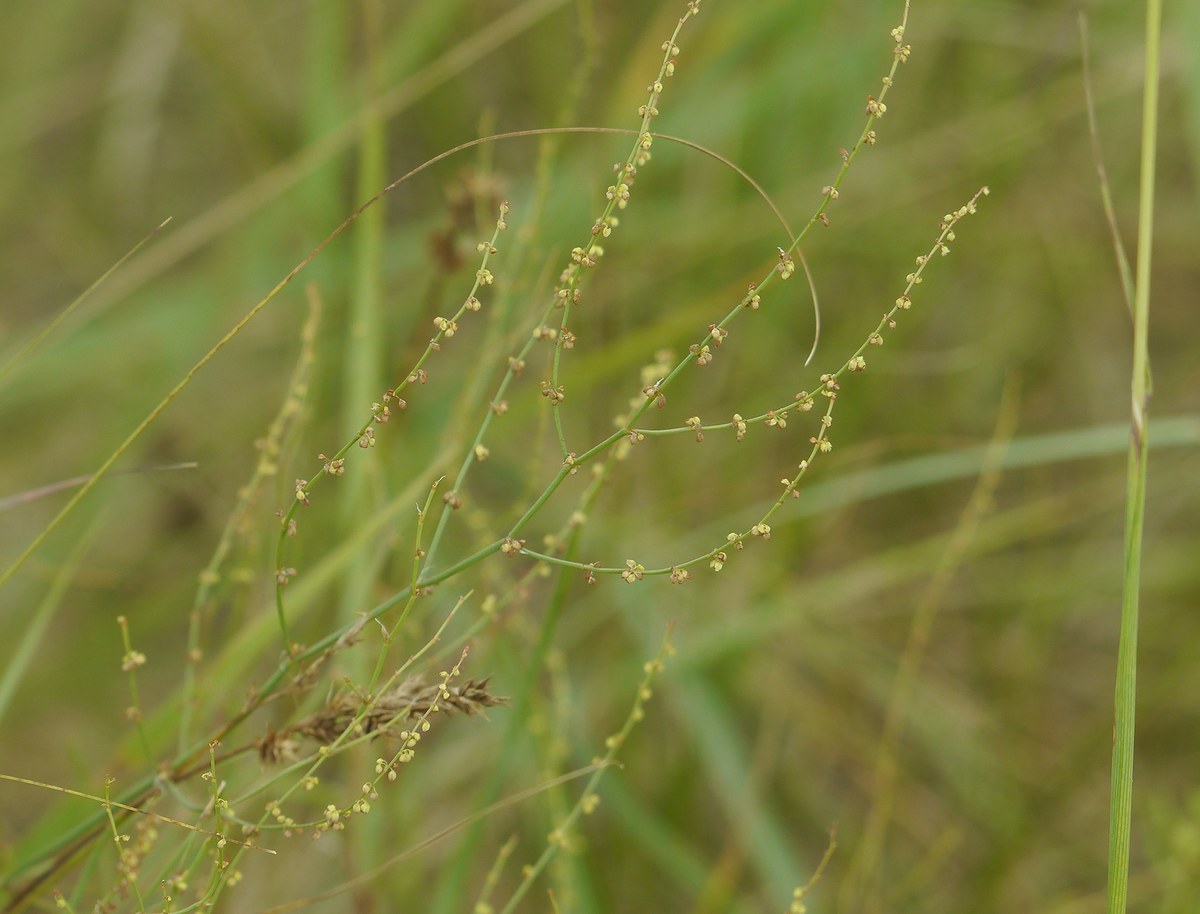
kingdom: Plantae
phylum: Tracheophyta
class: Magnoliopsida
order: Caryophyllales
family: Polygonaceae
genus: Rumex
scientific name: Rumex acetosella
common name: Common sheep sorrel
